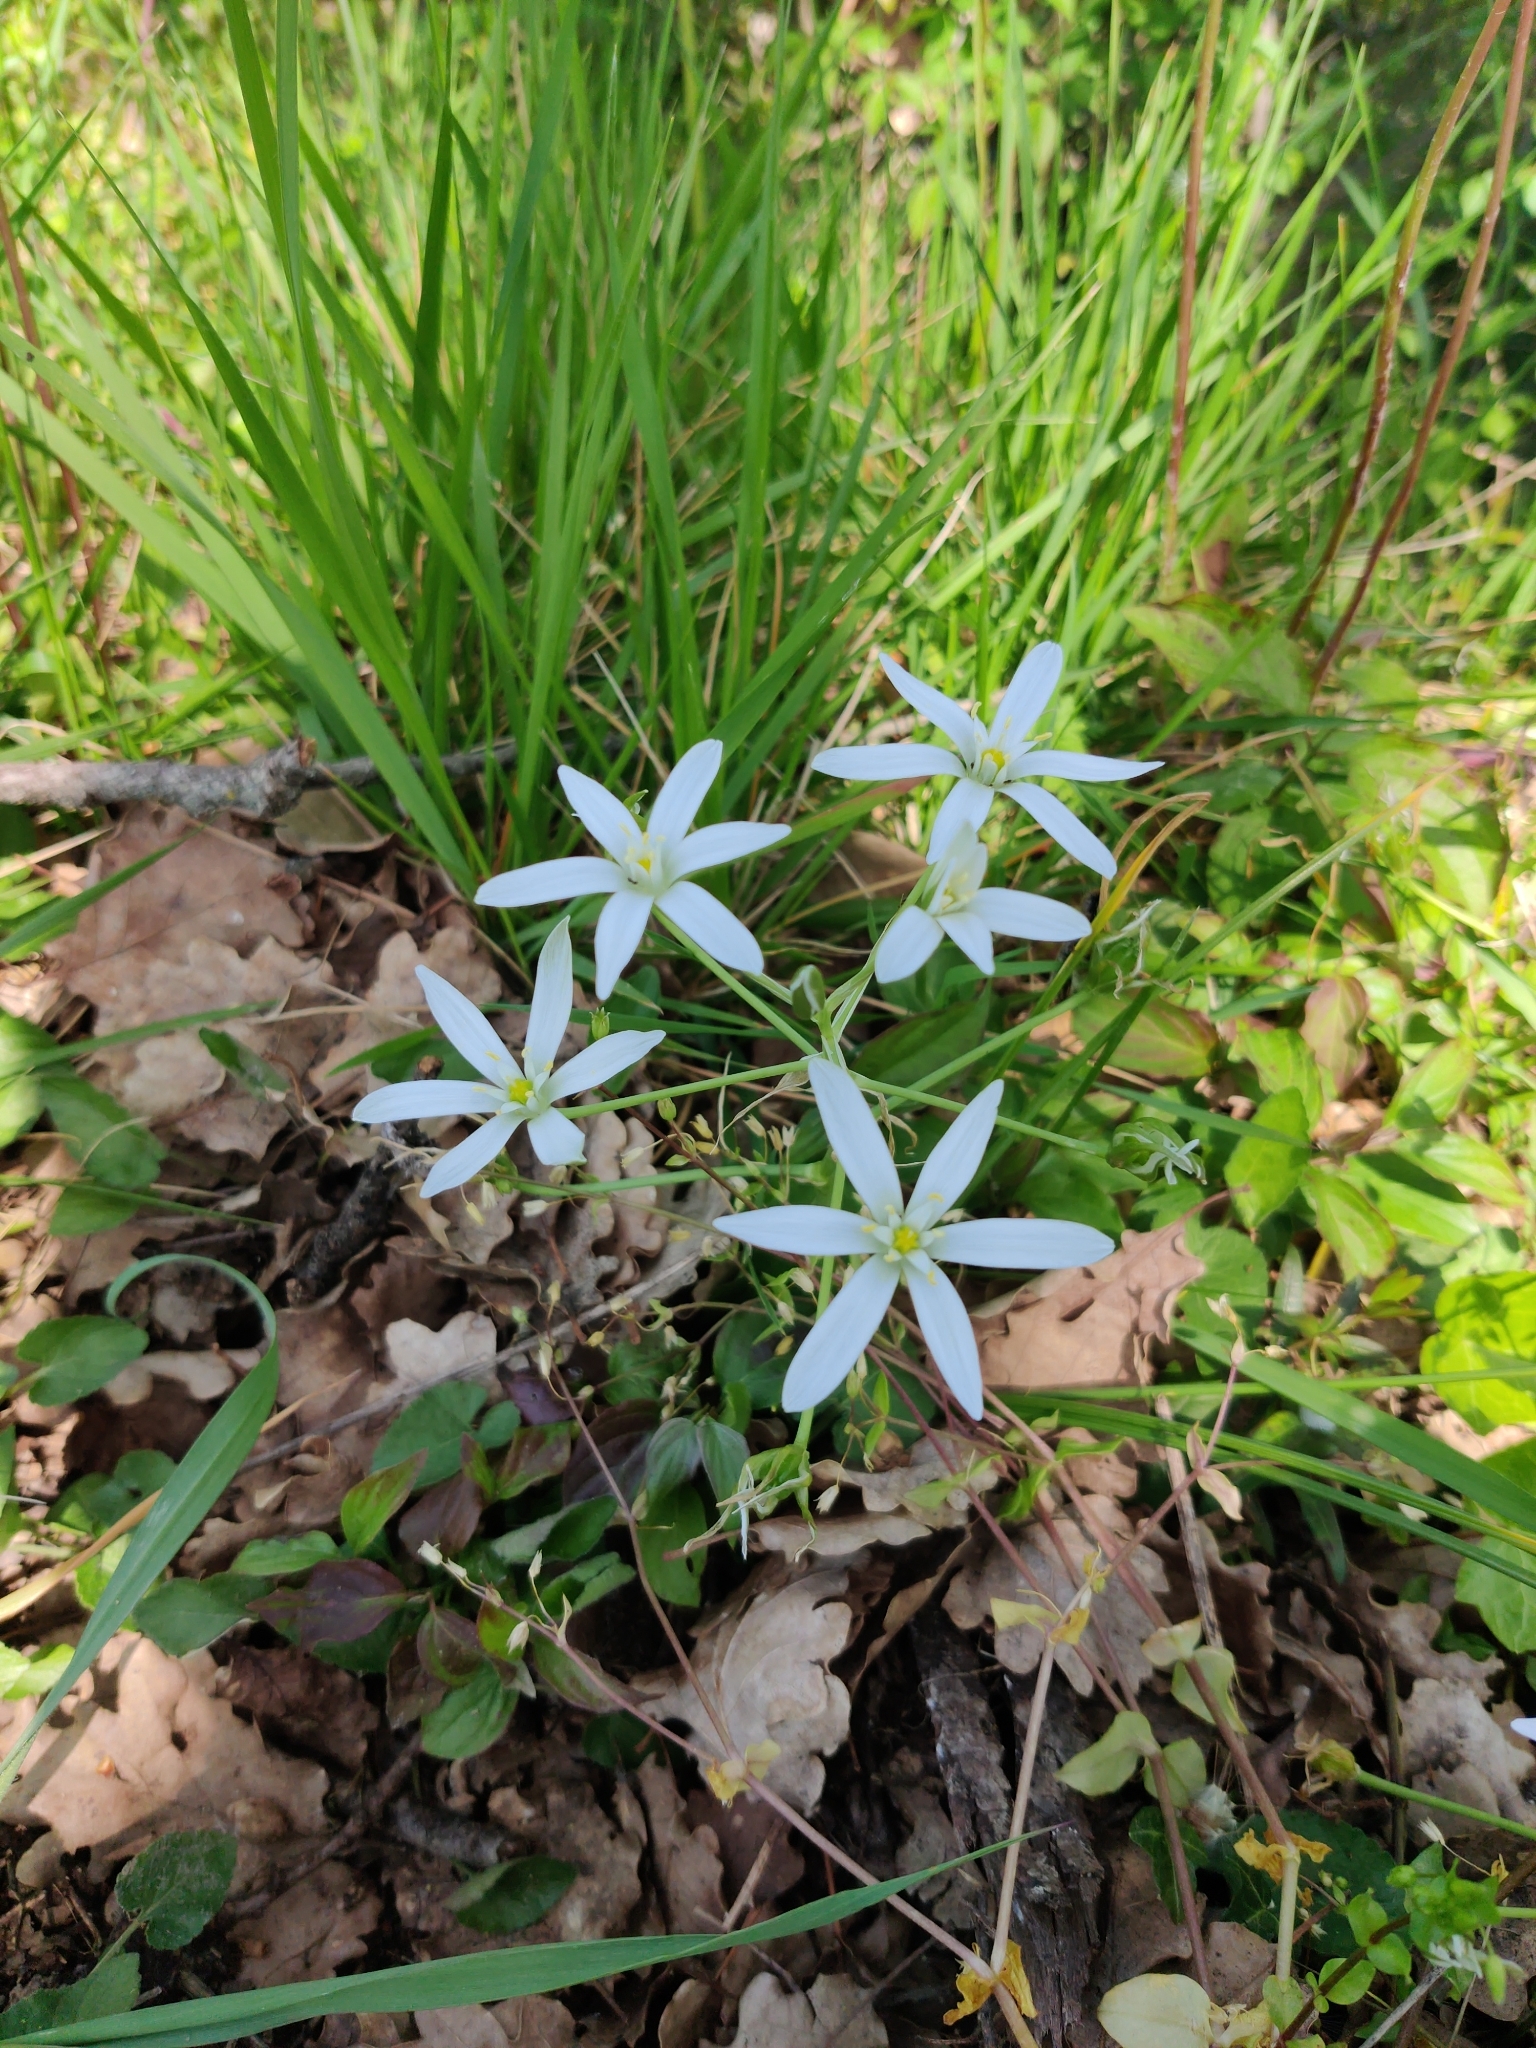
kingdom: Plantae
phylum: Tracheophyta
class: Liliopsida
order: Asparagales
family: Asparagaceae
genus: Ornithogalum
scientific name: Ornithogalum divergens
